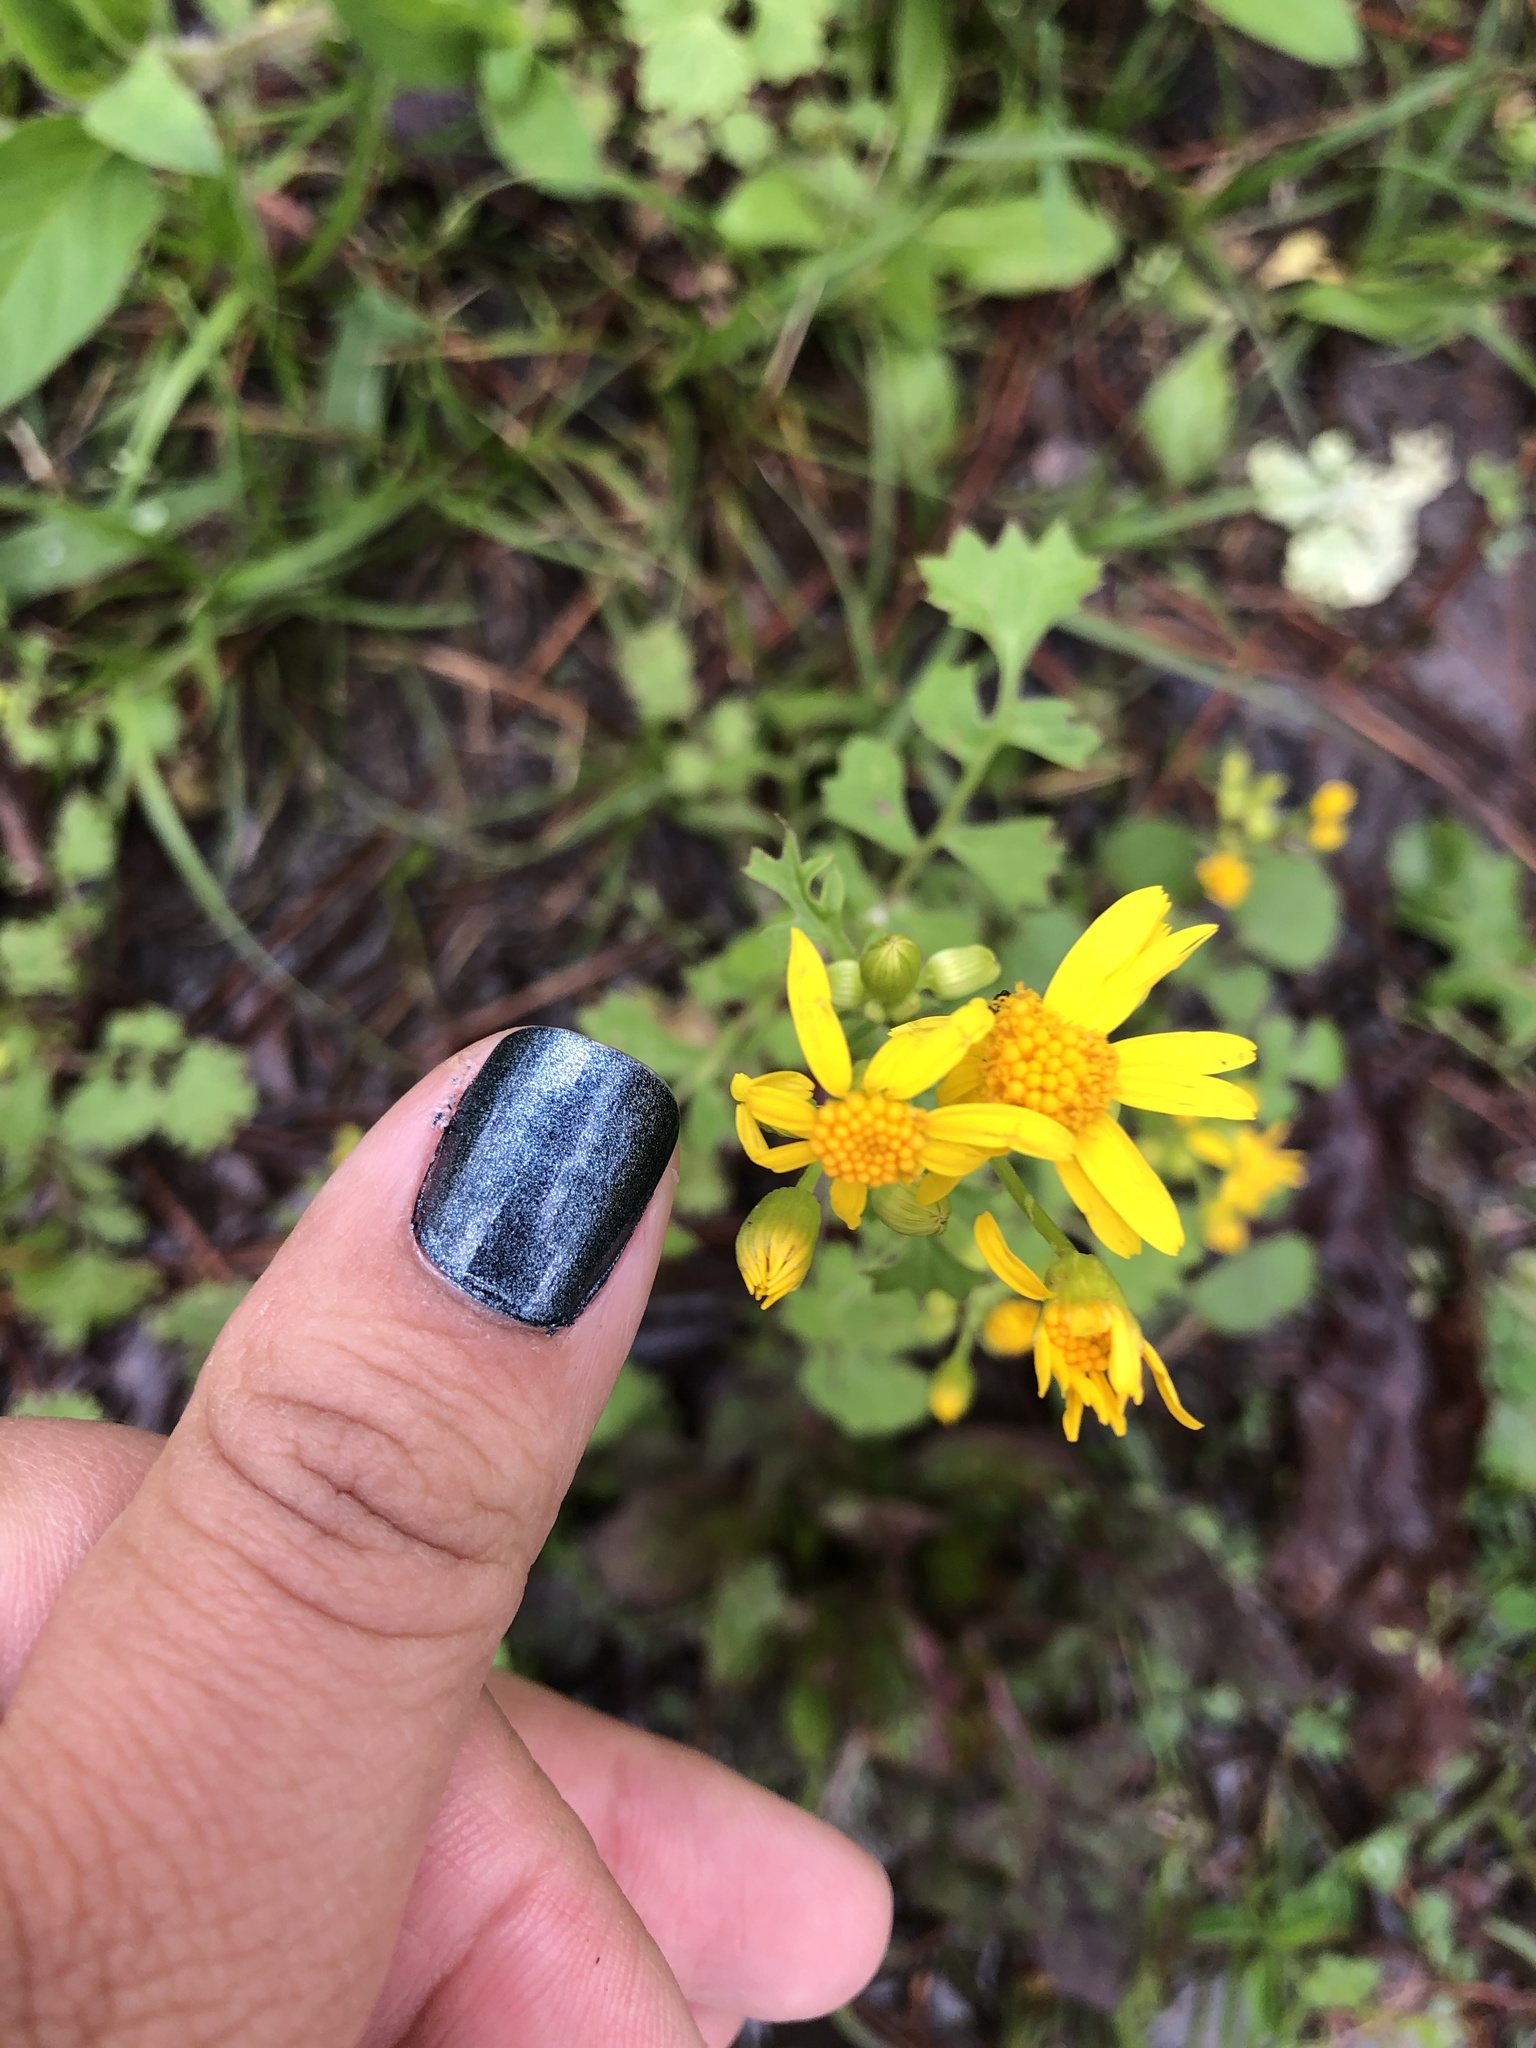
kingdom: Plantae
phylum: Tracheophyta
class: Magnoliopsida
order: Asterales
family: Asteraceae
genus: Packera
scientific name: Packera glabella
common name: Butterweed
